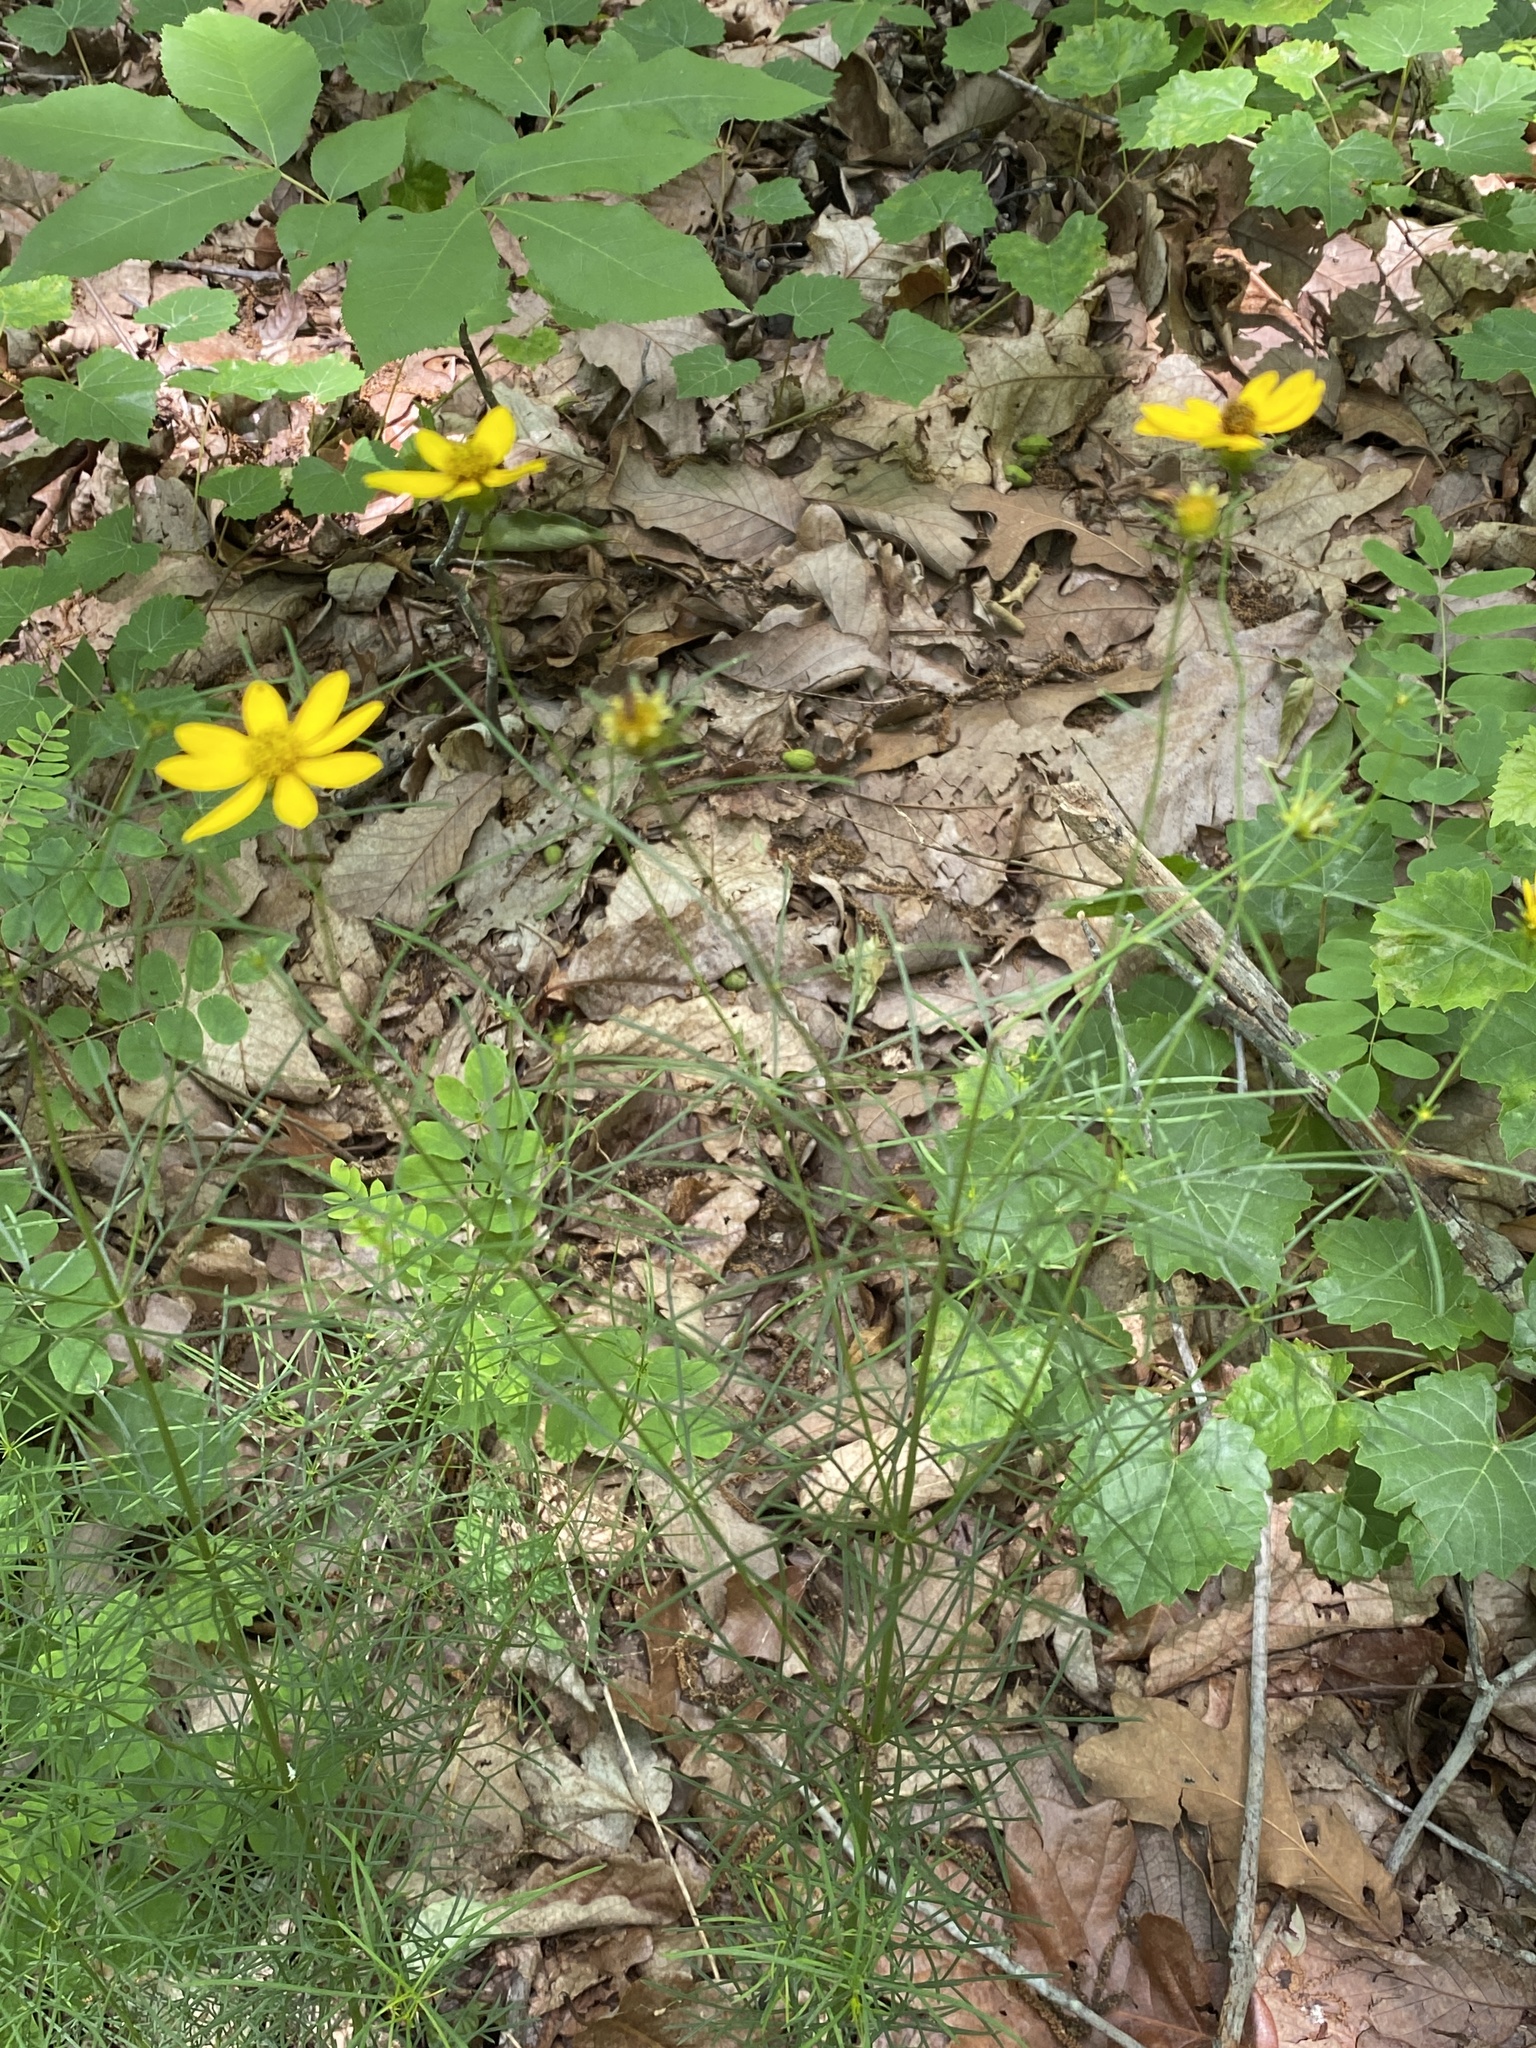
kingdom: Plantae
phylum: Tracheophyta
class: Magnoliopsida
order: Asterales
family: Asteraceae
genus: Coreopsis
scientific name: Coreopsis verticillata
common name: Whorled tickseed
